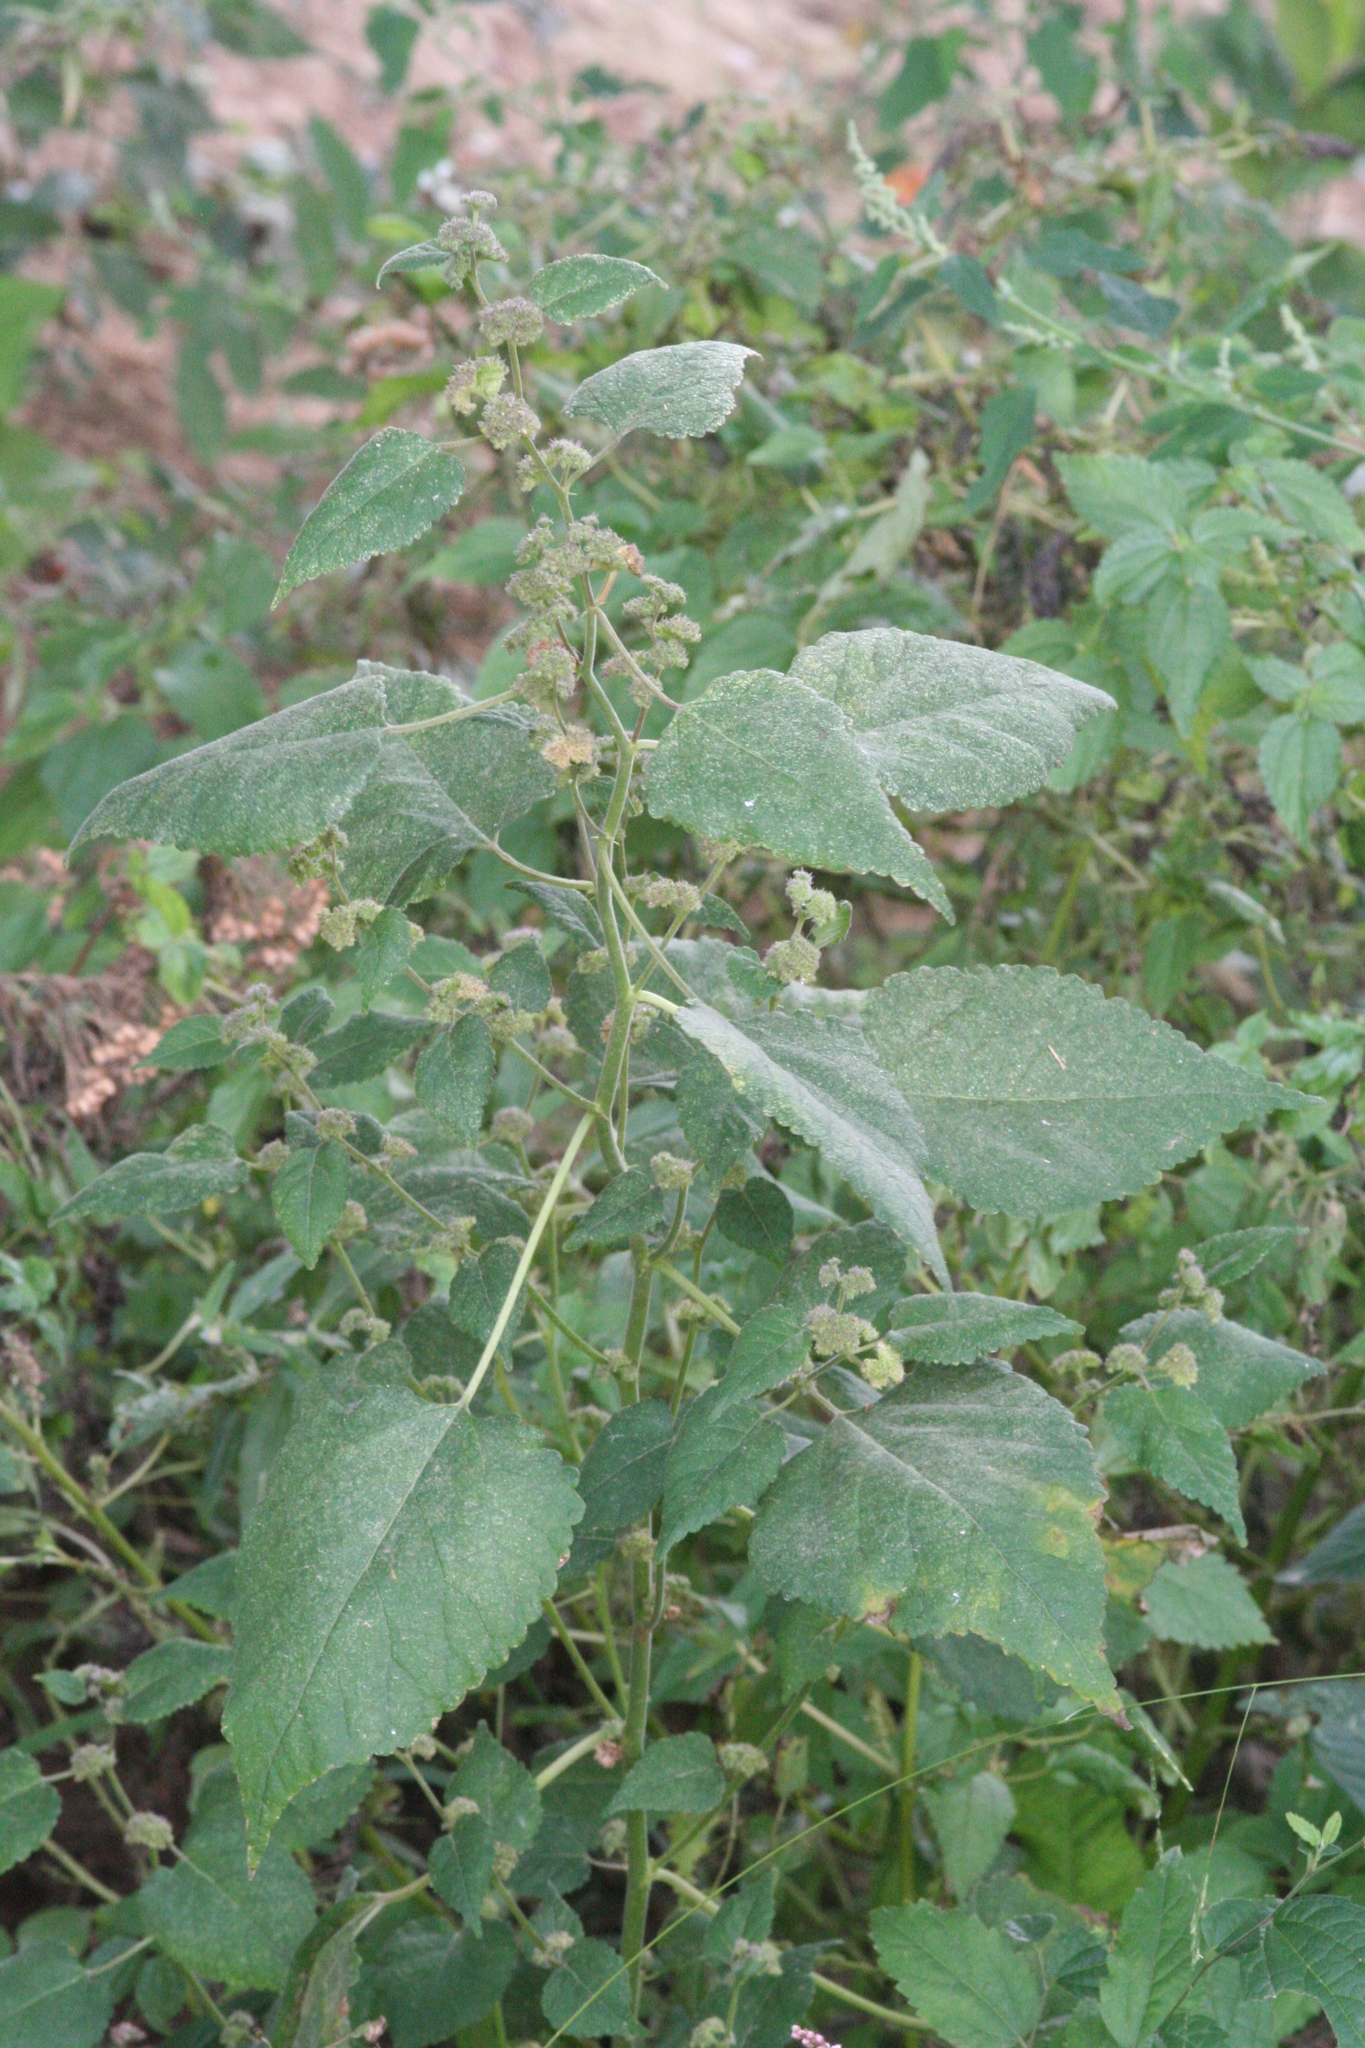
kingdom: Plantae
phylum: Tracheophyta
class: Magnoliopsida
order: Rosales
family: Moraceae
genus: Fatoua
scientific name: Fatoua villosa
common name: Hairy crabweed
